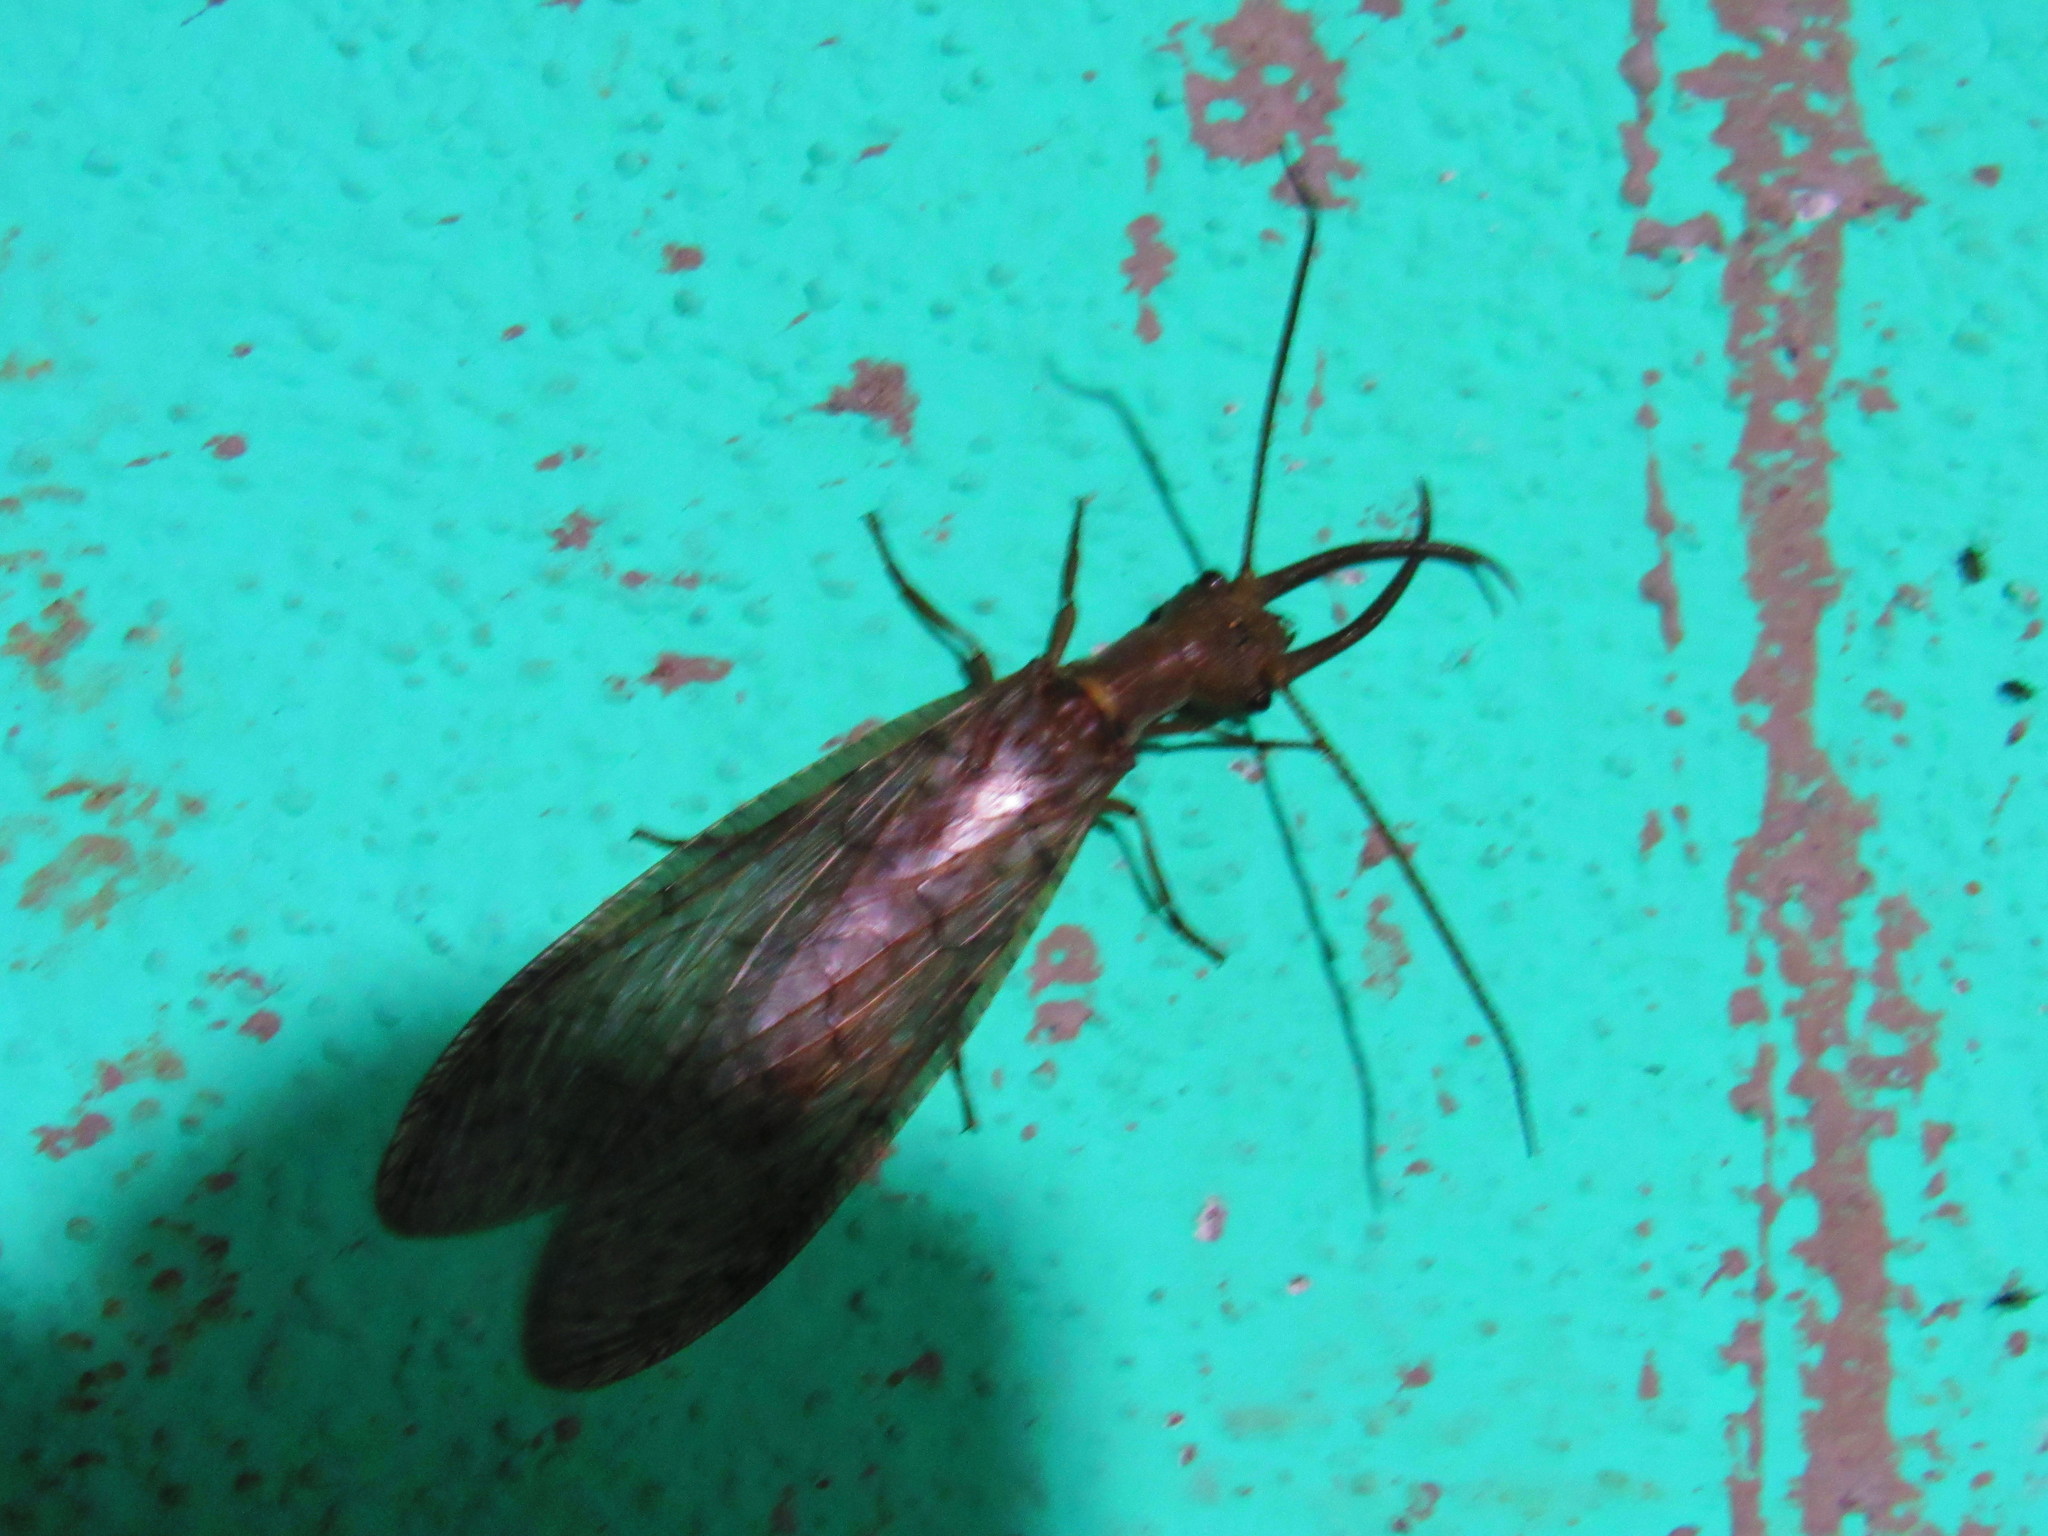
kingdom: Animalia
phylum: Arthropoda
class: Insecta
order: Megaloptera
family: Corydalidae
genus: Corydalus
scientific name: Corydalus luteus
